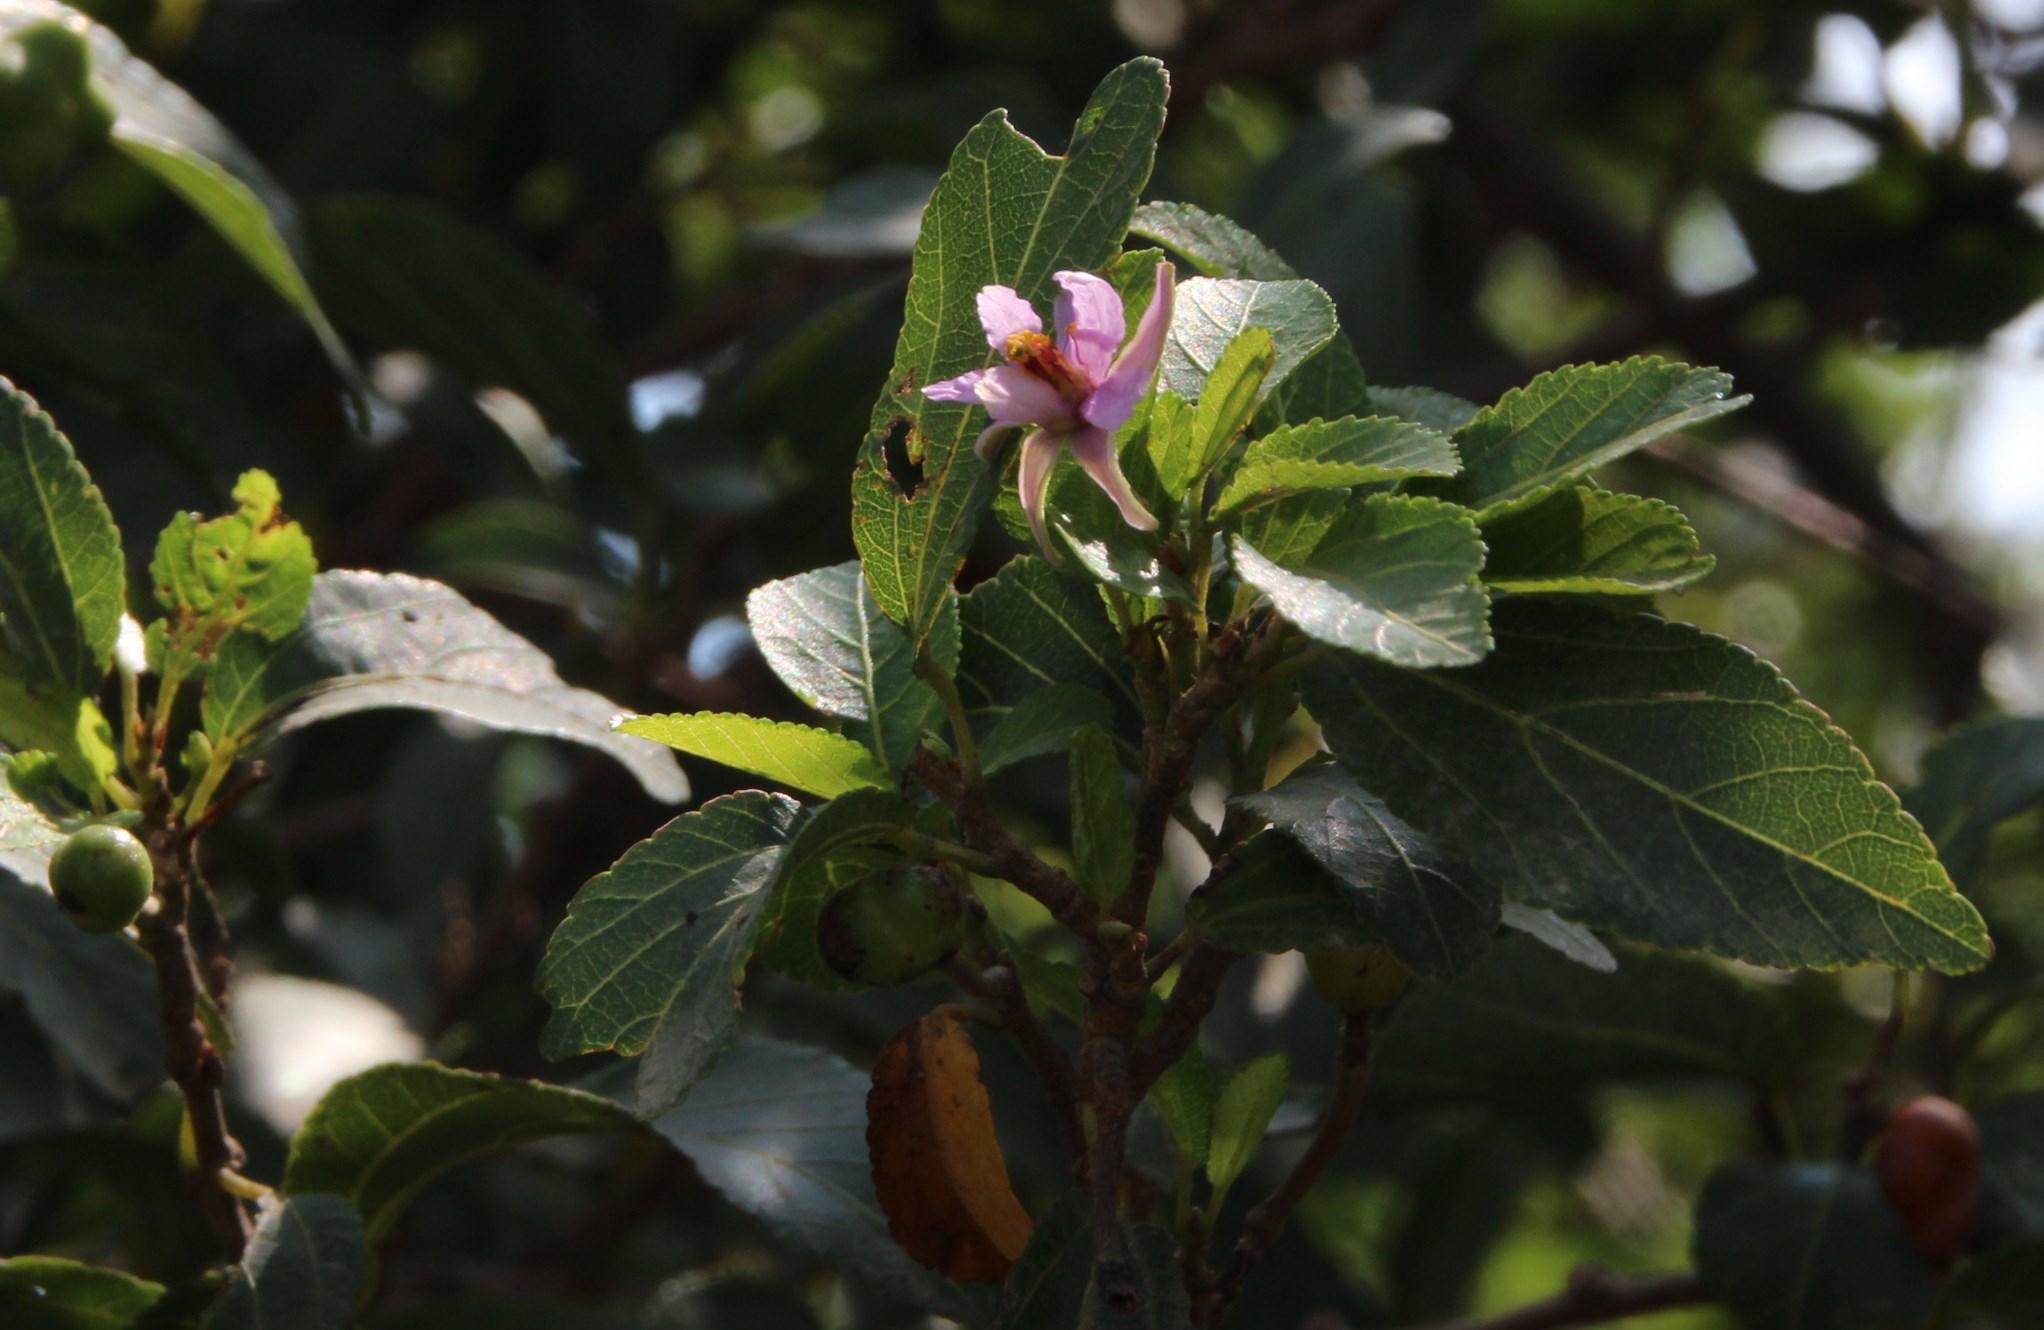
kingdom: Plantae
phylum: Tracheophyta
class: Magnoliopsida
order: Malvales
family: Malvaceae
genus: Grewia
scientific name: Grewia occidentalis
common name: Crossberry
